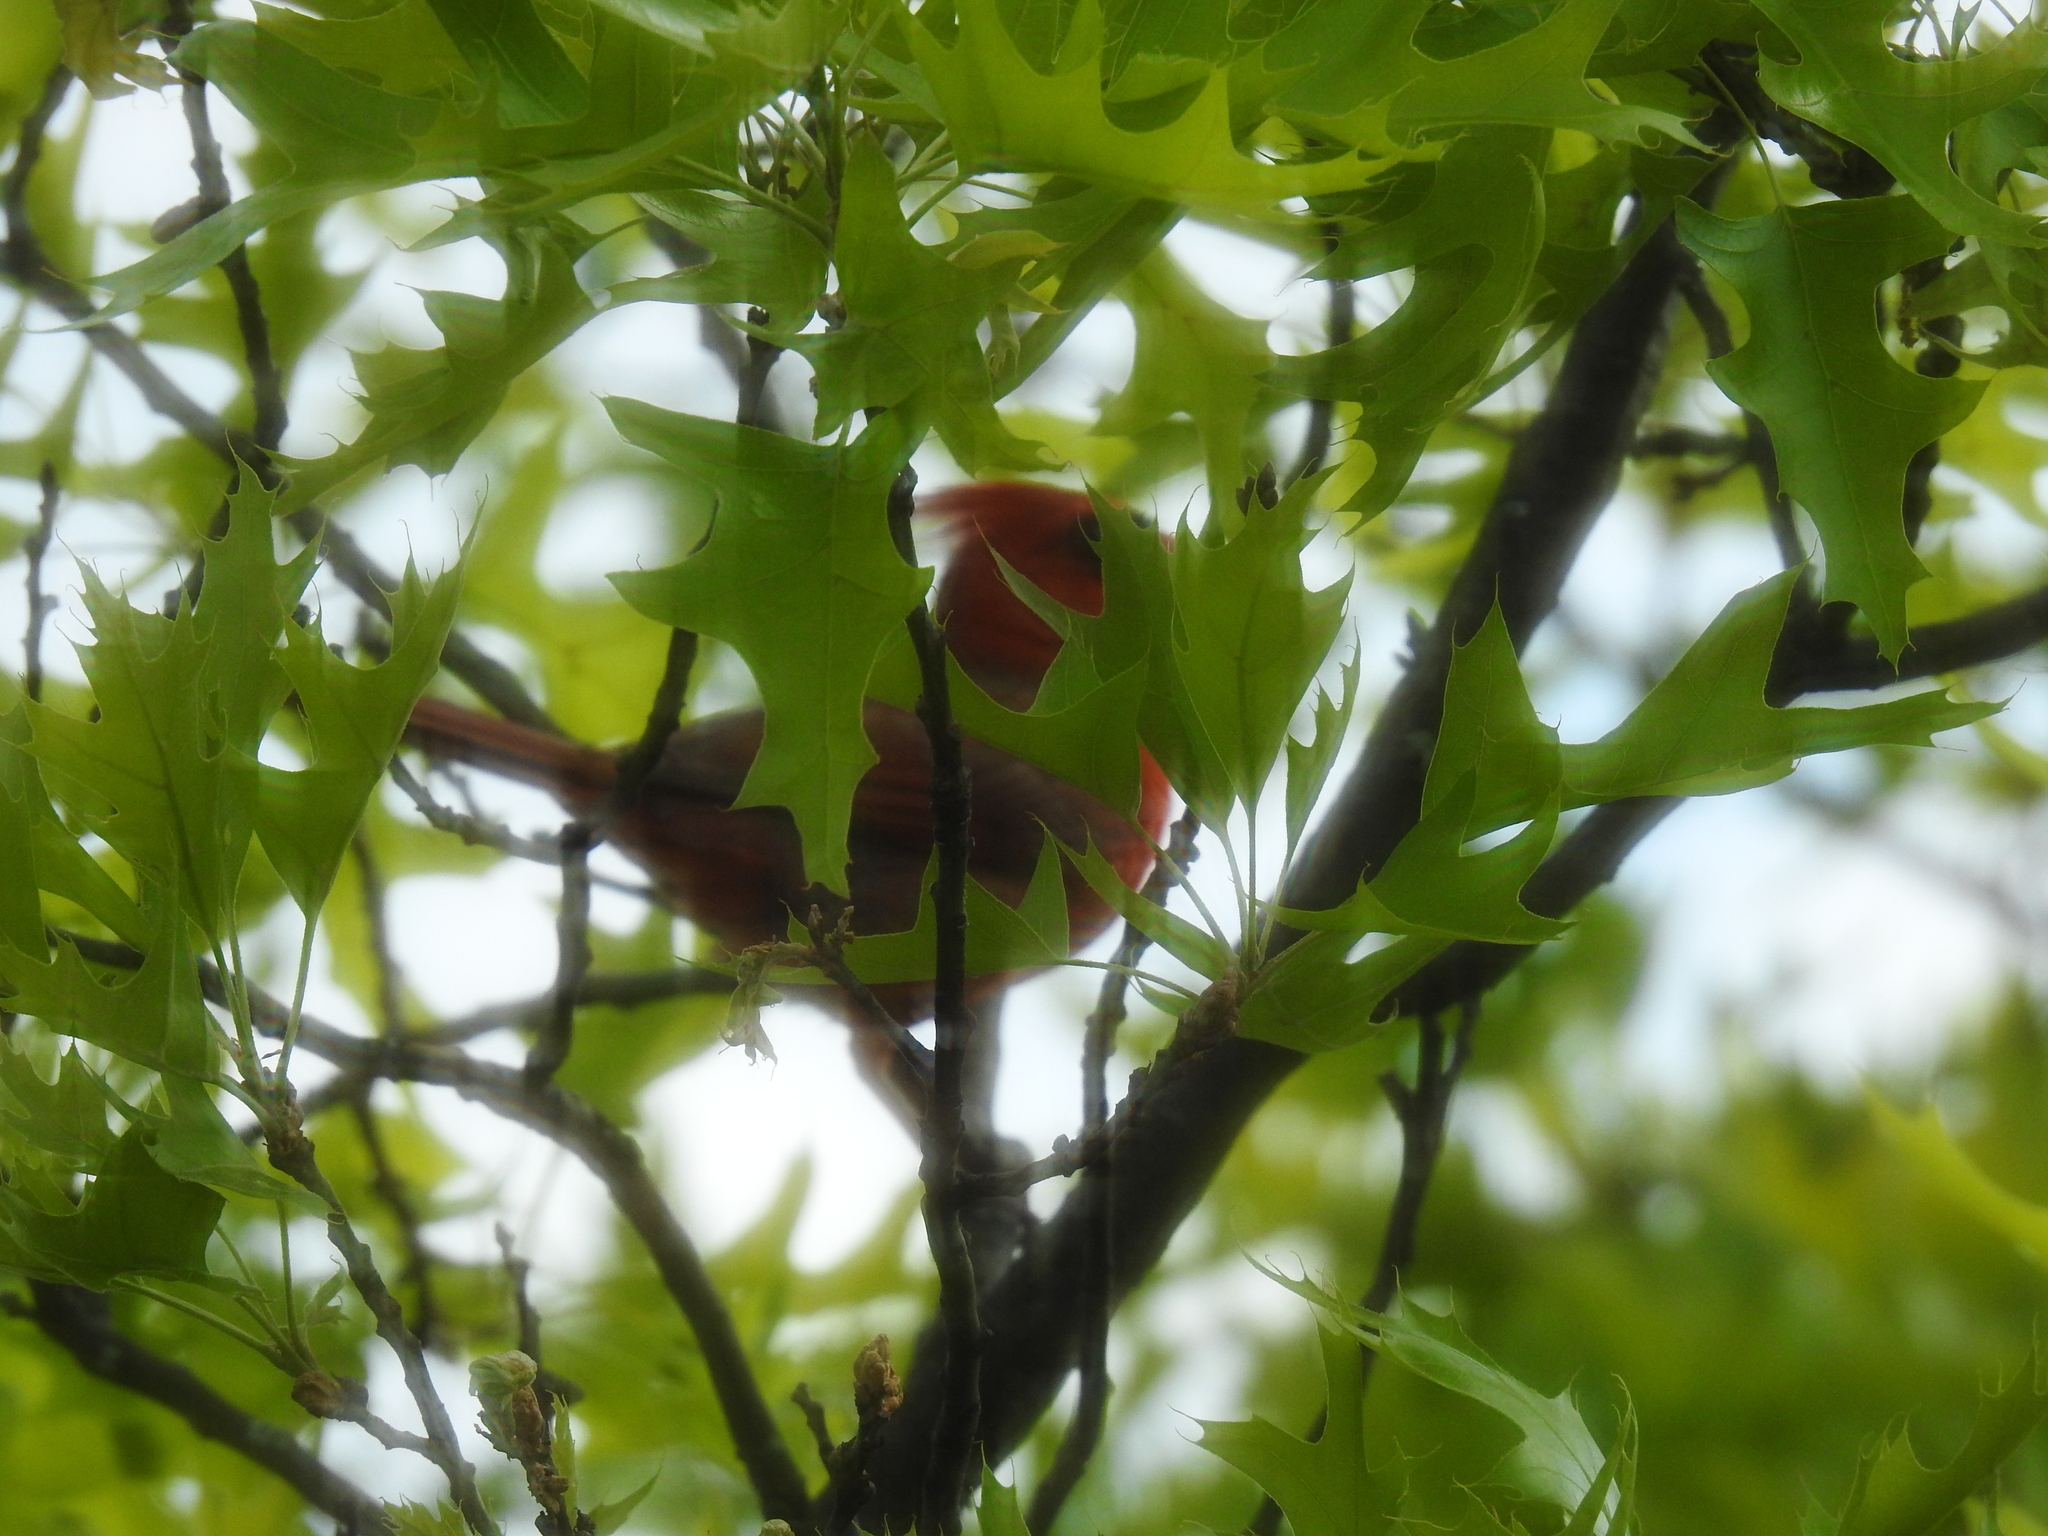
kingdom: Animalia
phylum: Chordata
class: Aves
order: Passeriformes
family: Cardinalidae
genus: Cardinalis
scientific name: Cardinalis cardinalis
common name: Northern cardinal
